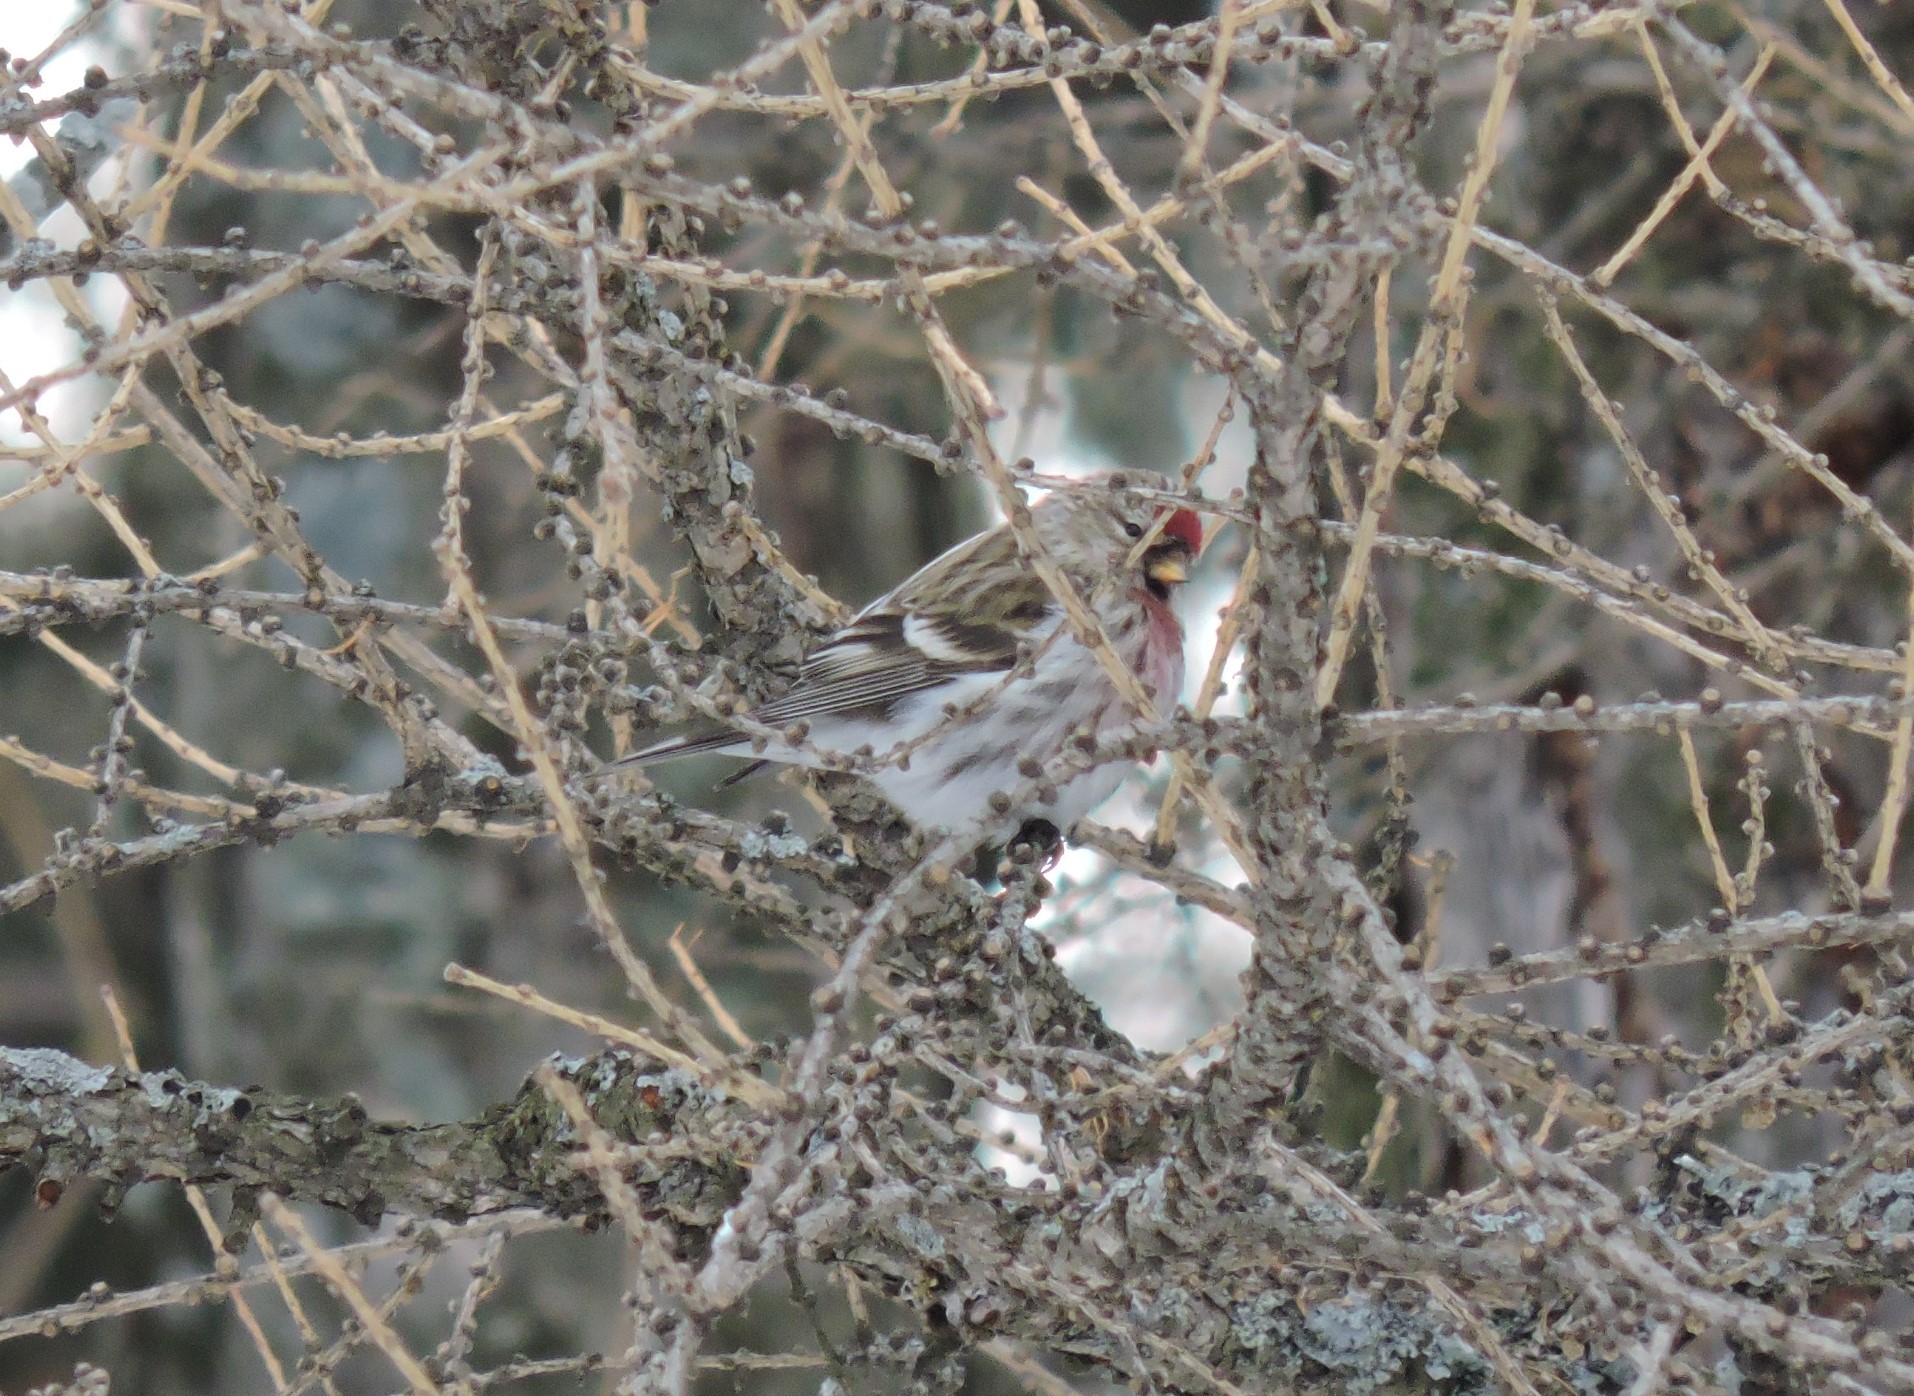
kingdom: Animalia
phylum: Chordata
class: Aves
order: Passeriformes
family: Fringillidae
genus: Acanthis
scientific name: Acanthis flammea
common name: Common redpoll
